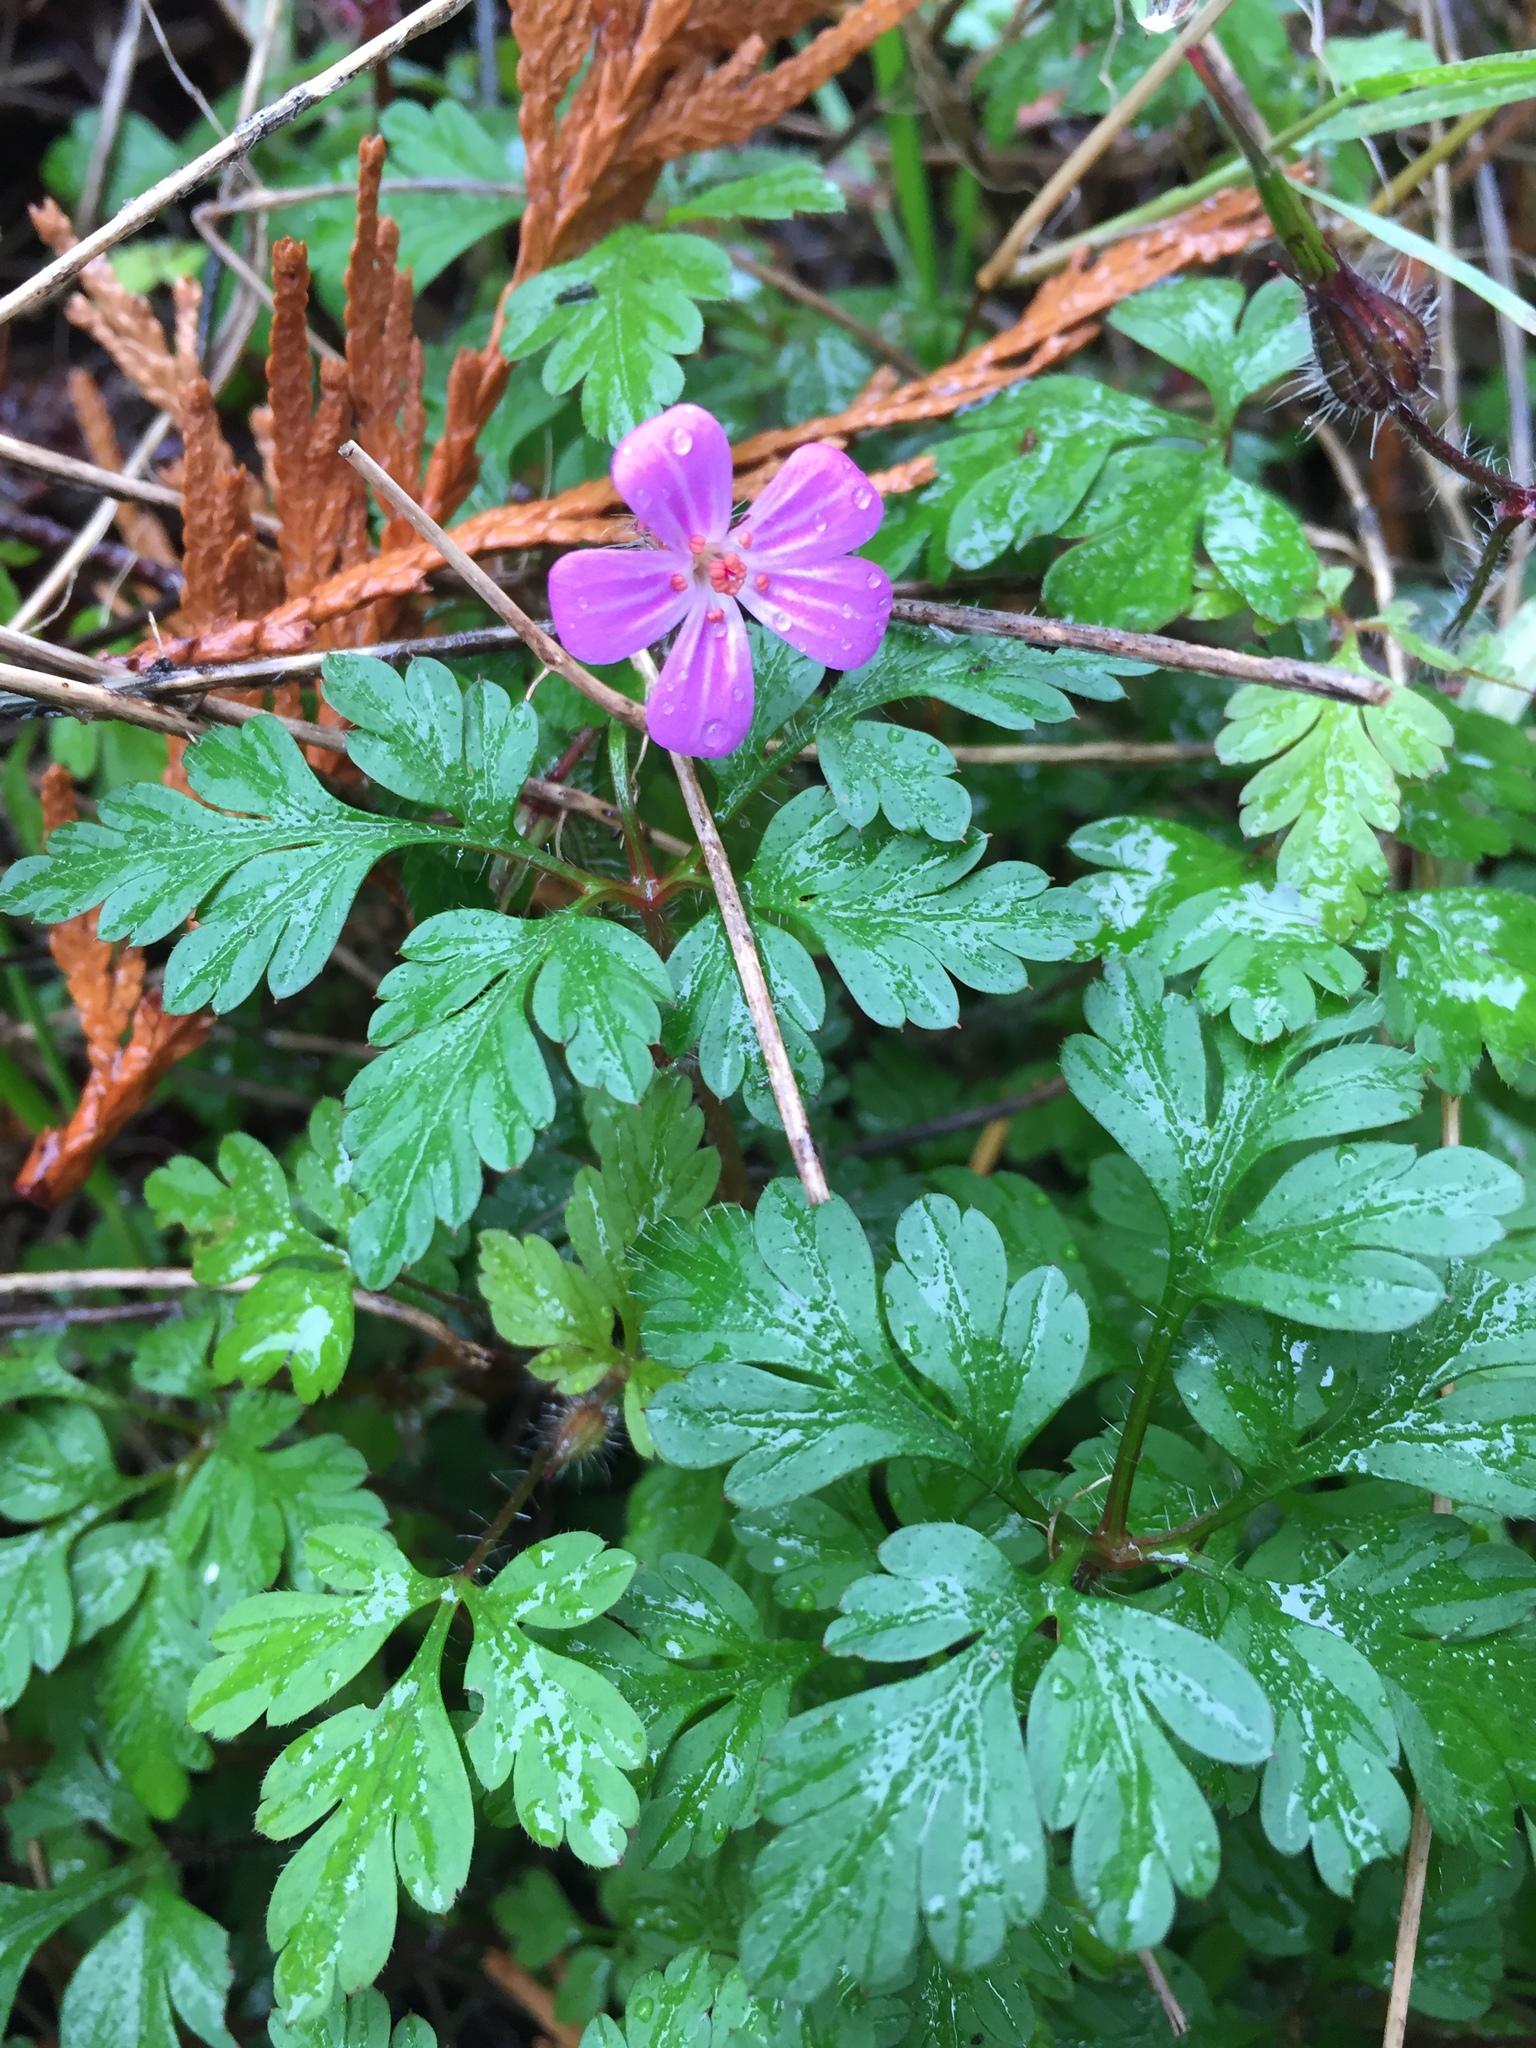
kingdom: Plantae
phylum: Tracheophyta
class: Magnoliopsida
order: Geraniales
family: Geraniaceae
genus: Geranium
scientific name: Geranium robertianum
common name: Herb-robert
